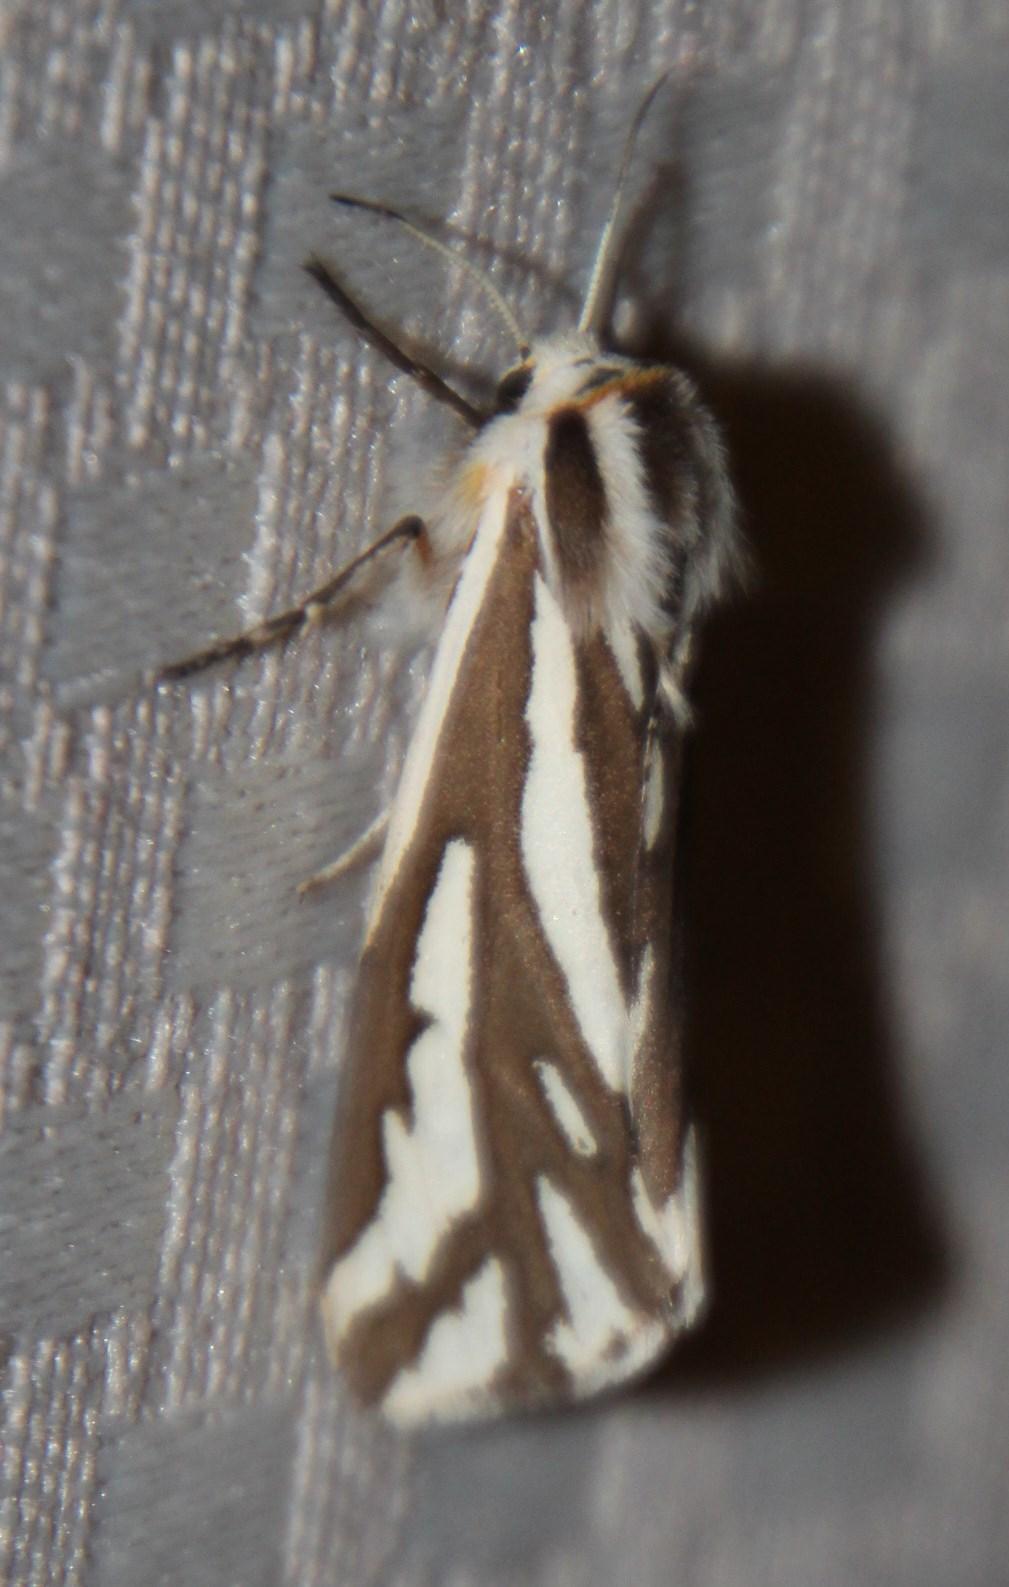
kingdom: Animalia
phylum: Arthropoda
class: Insecta
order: Lepidoptera
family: Erebidae
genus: Paralacydes
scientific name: Paralacydes arborifera
